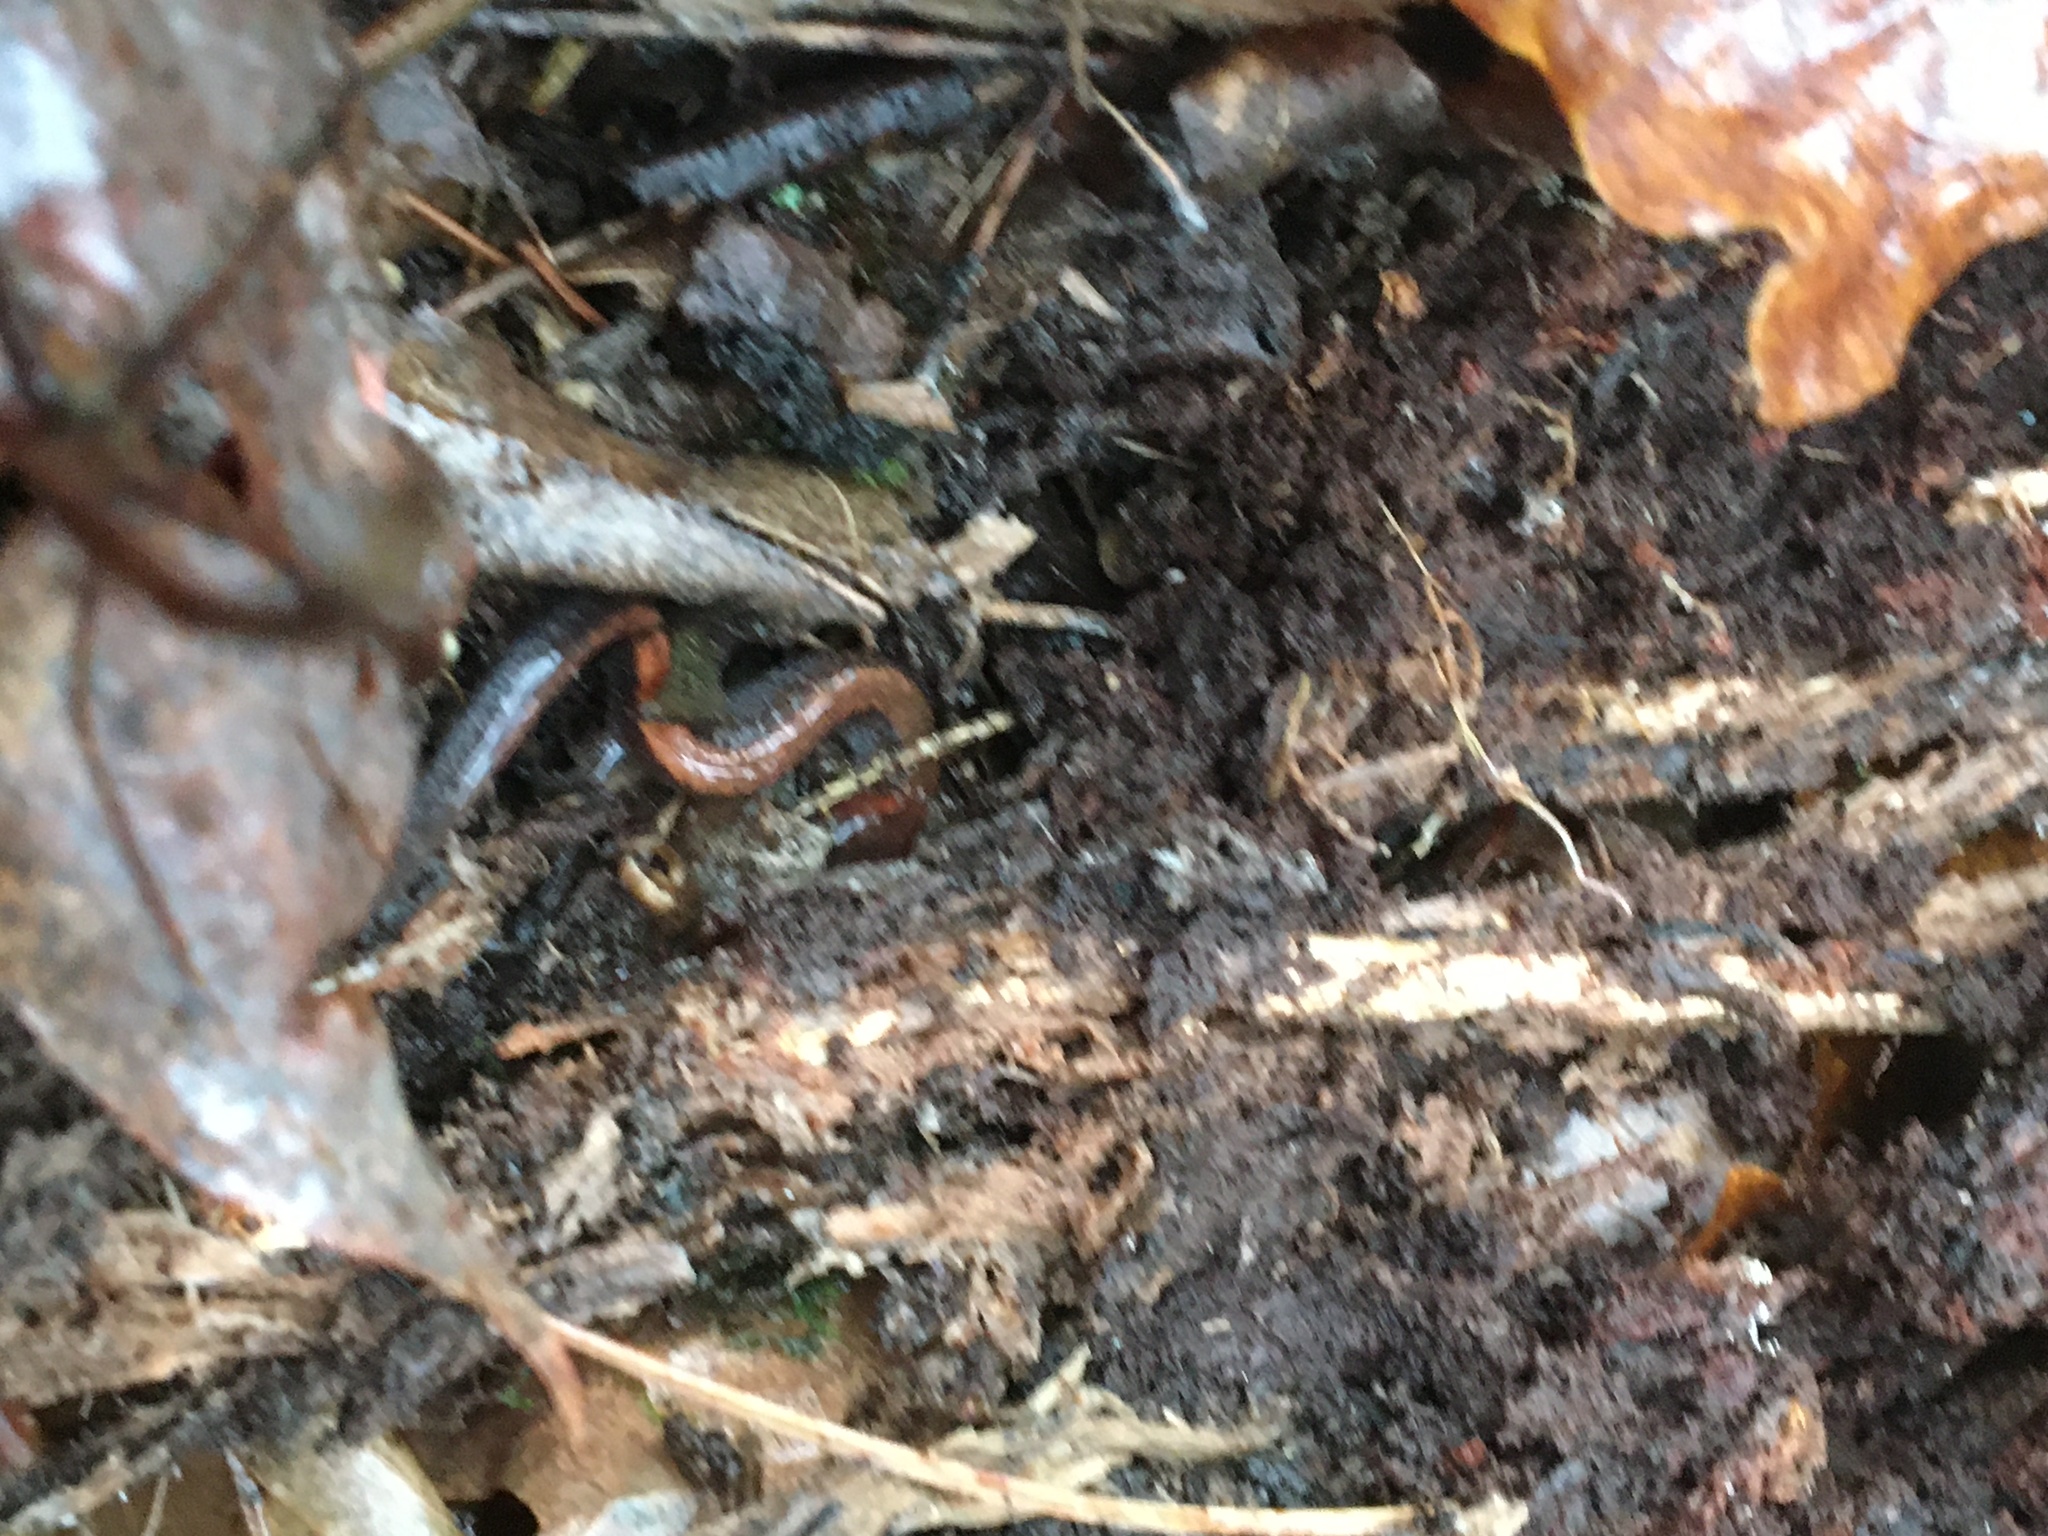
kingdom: Animalia
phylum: Chordata
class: Amphibia
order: Caudata
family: Plethodontidae
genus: Plethodon
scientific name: Plethodon cinereus
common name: Redback salamander
